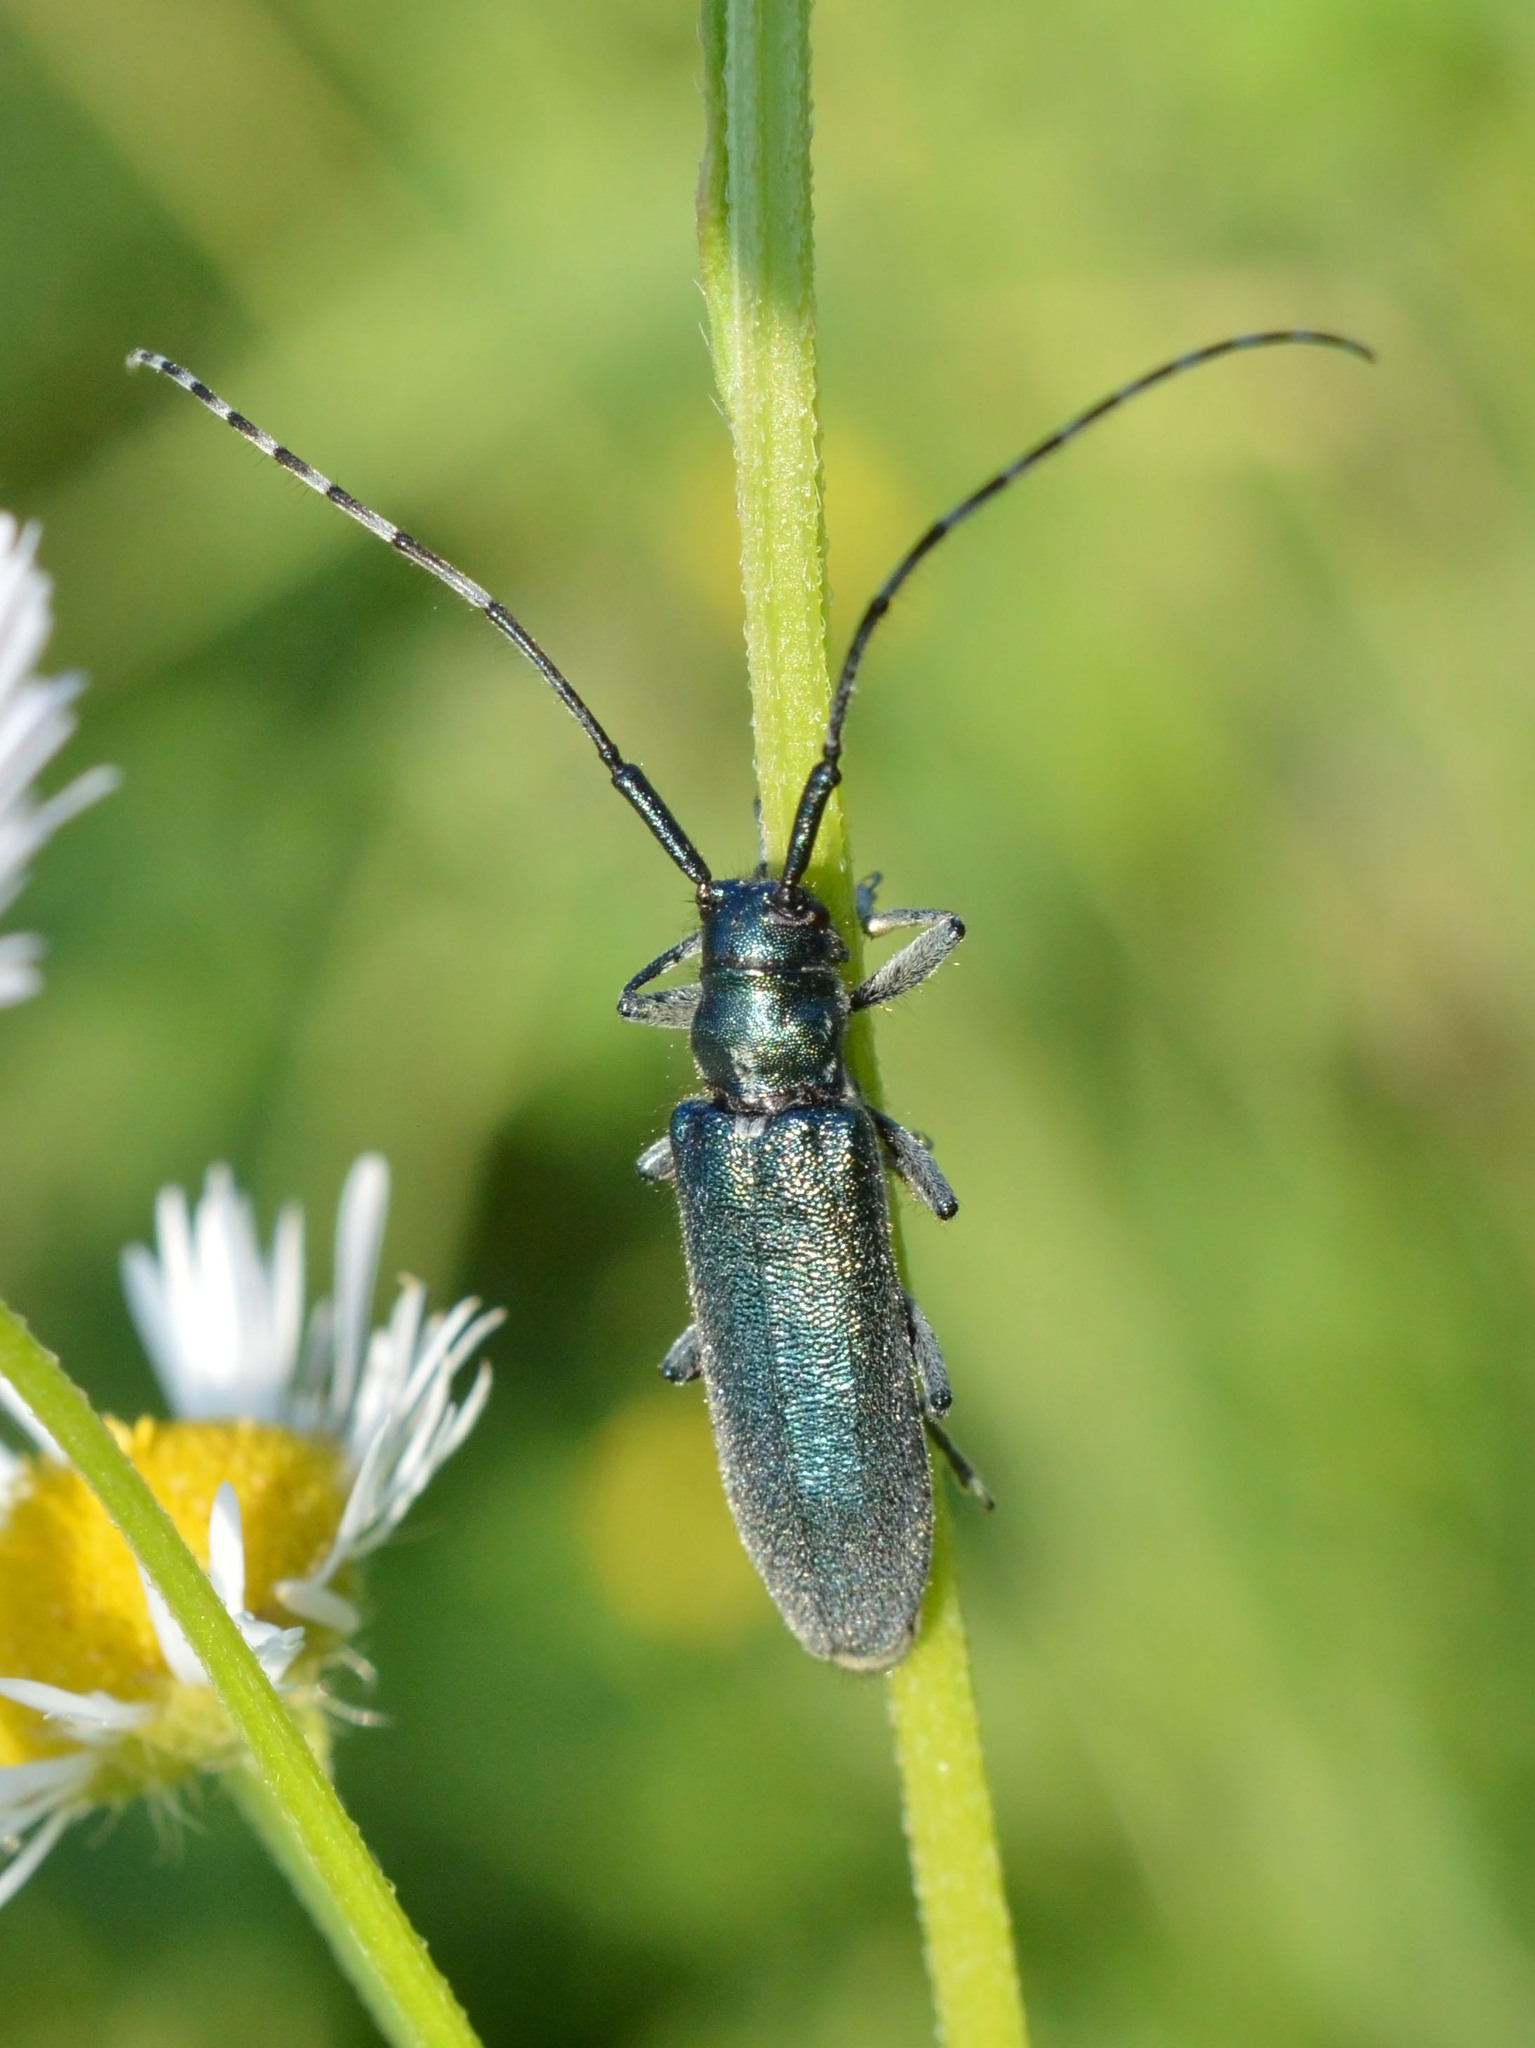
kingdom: Animalia
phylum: Arthropoda
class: Insecta
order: Coleoptera
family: Cerambycidae
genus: Agapanthia
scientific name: Agapanthia osmanlis
